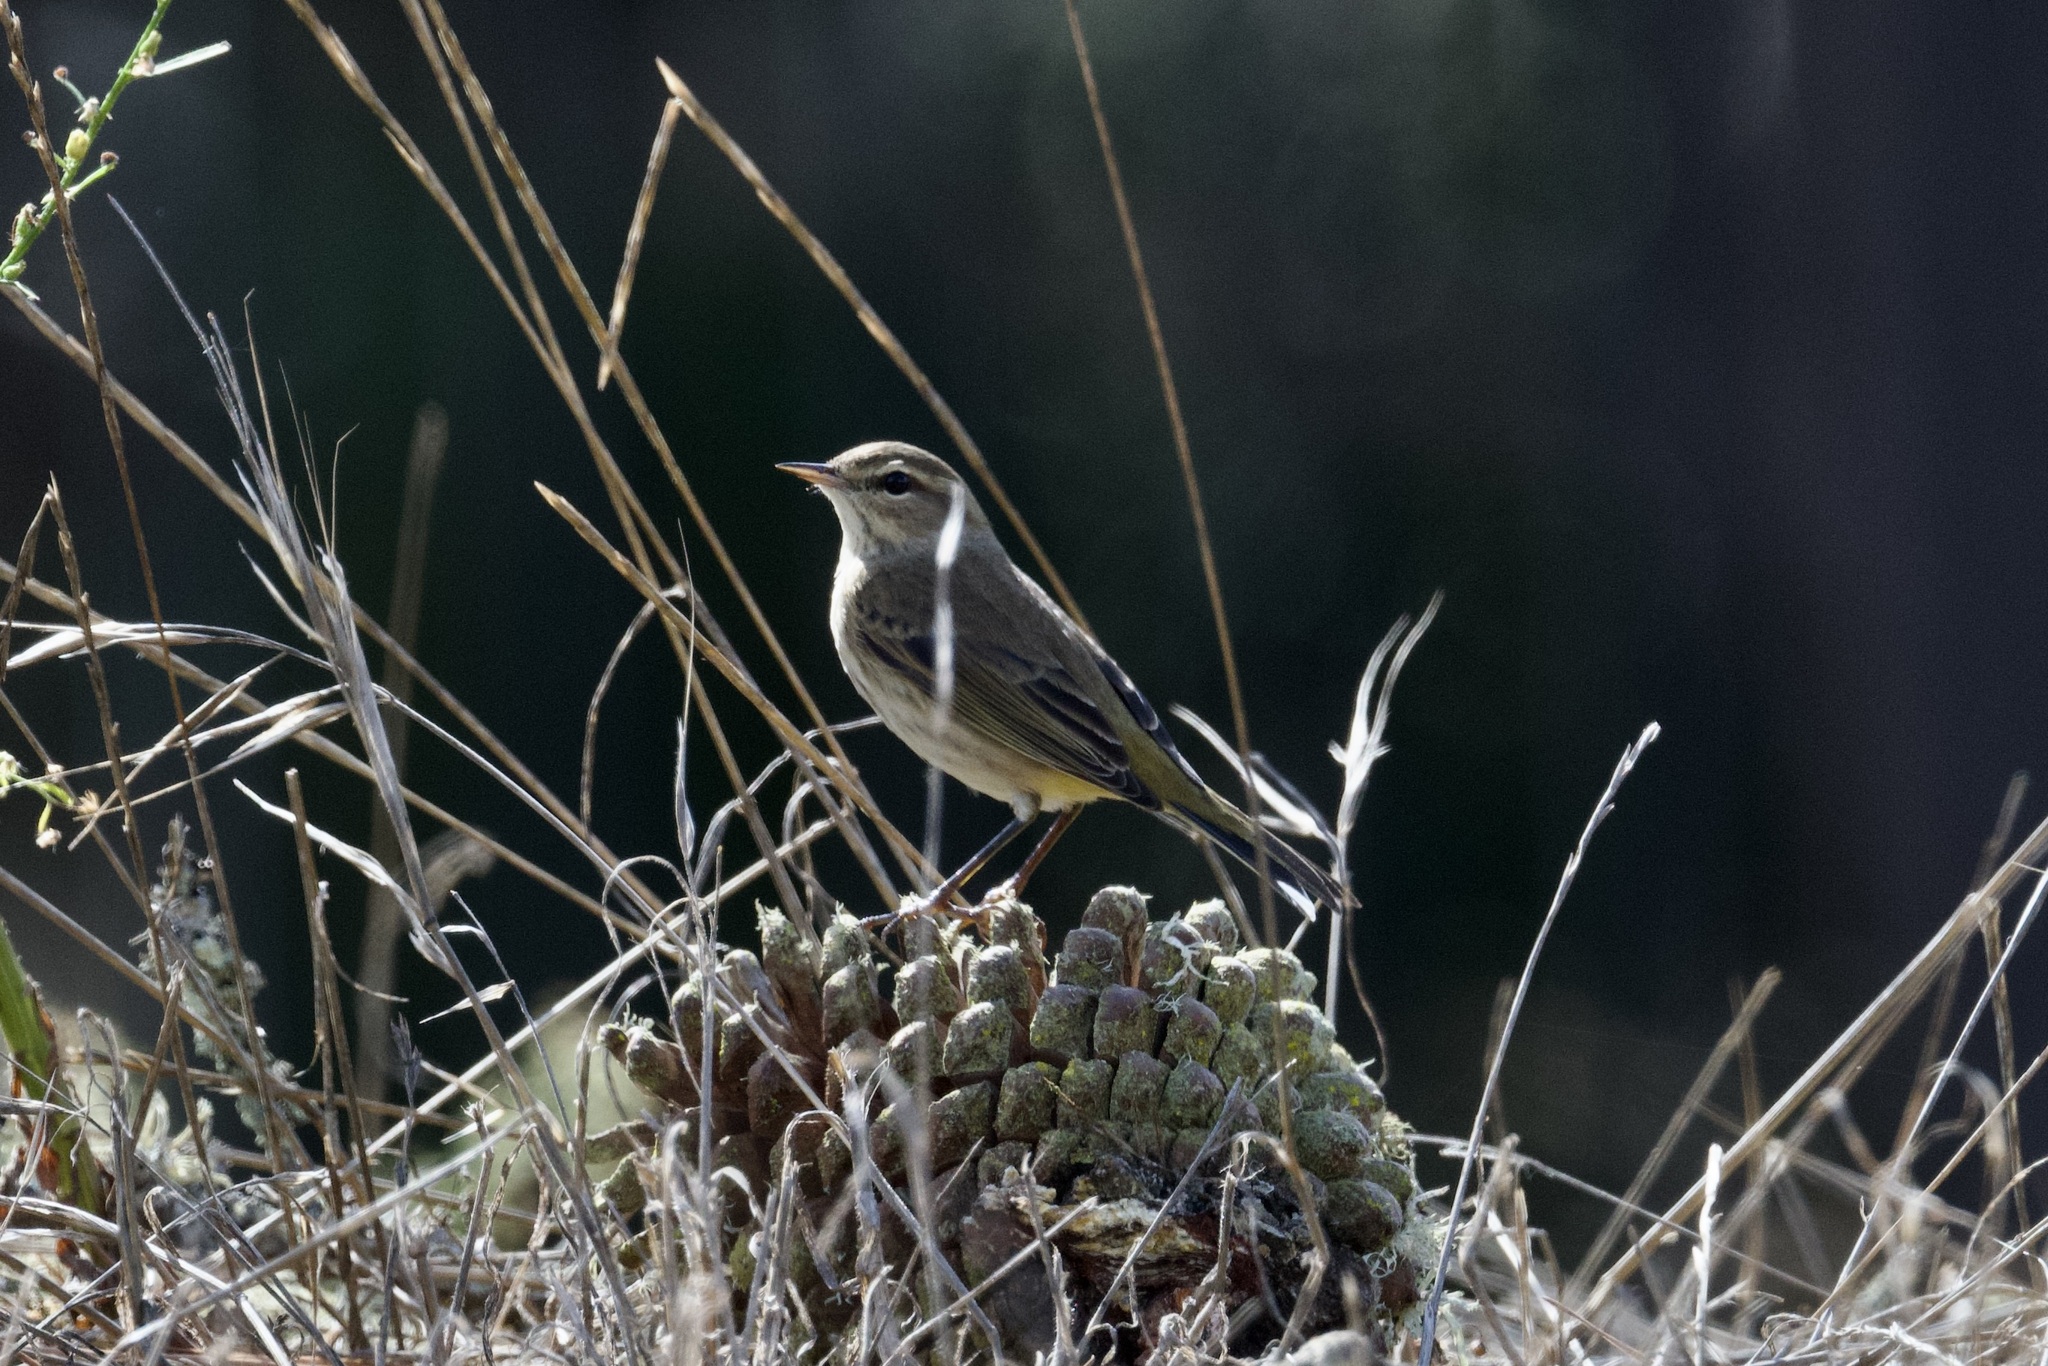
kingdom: Animalia
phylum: Chordata
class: Aves
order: Passeriformes
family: Parulidae
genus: Setophaga
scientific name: Setophaga palmarum
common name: Palm warbler
